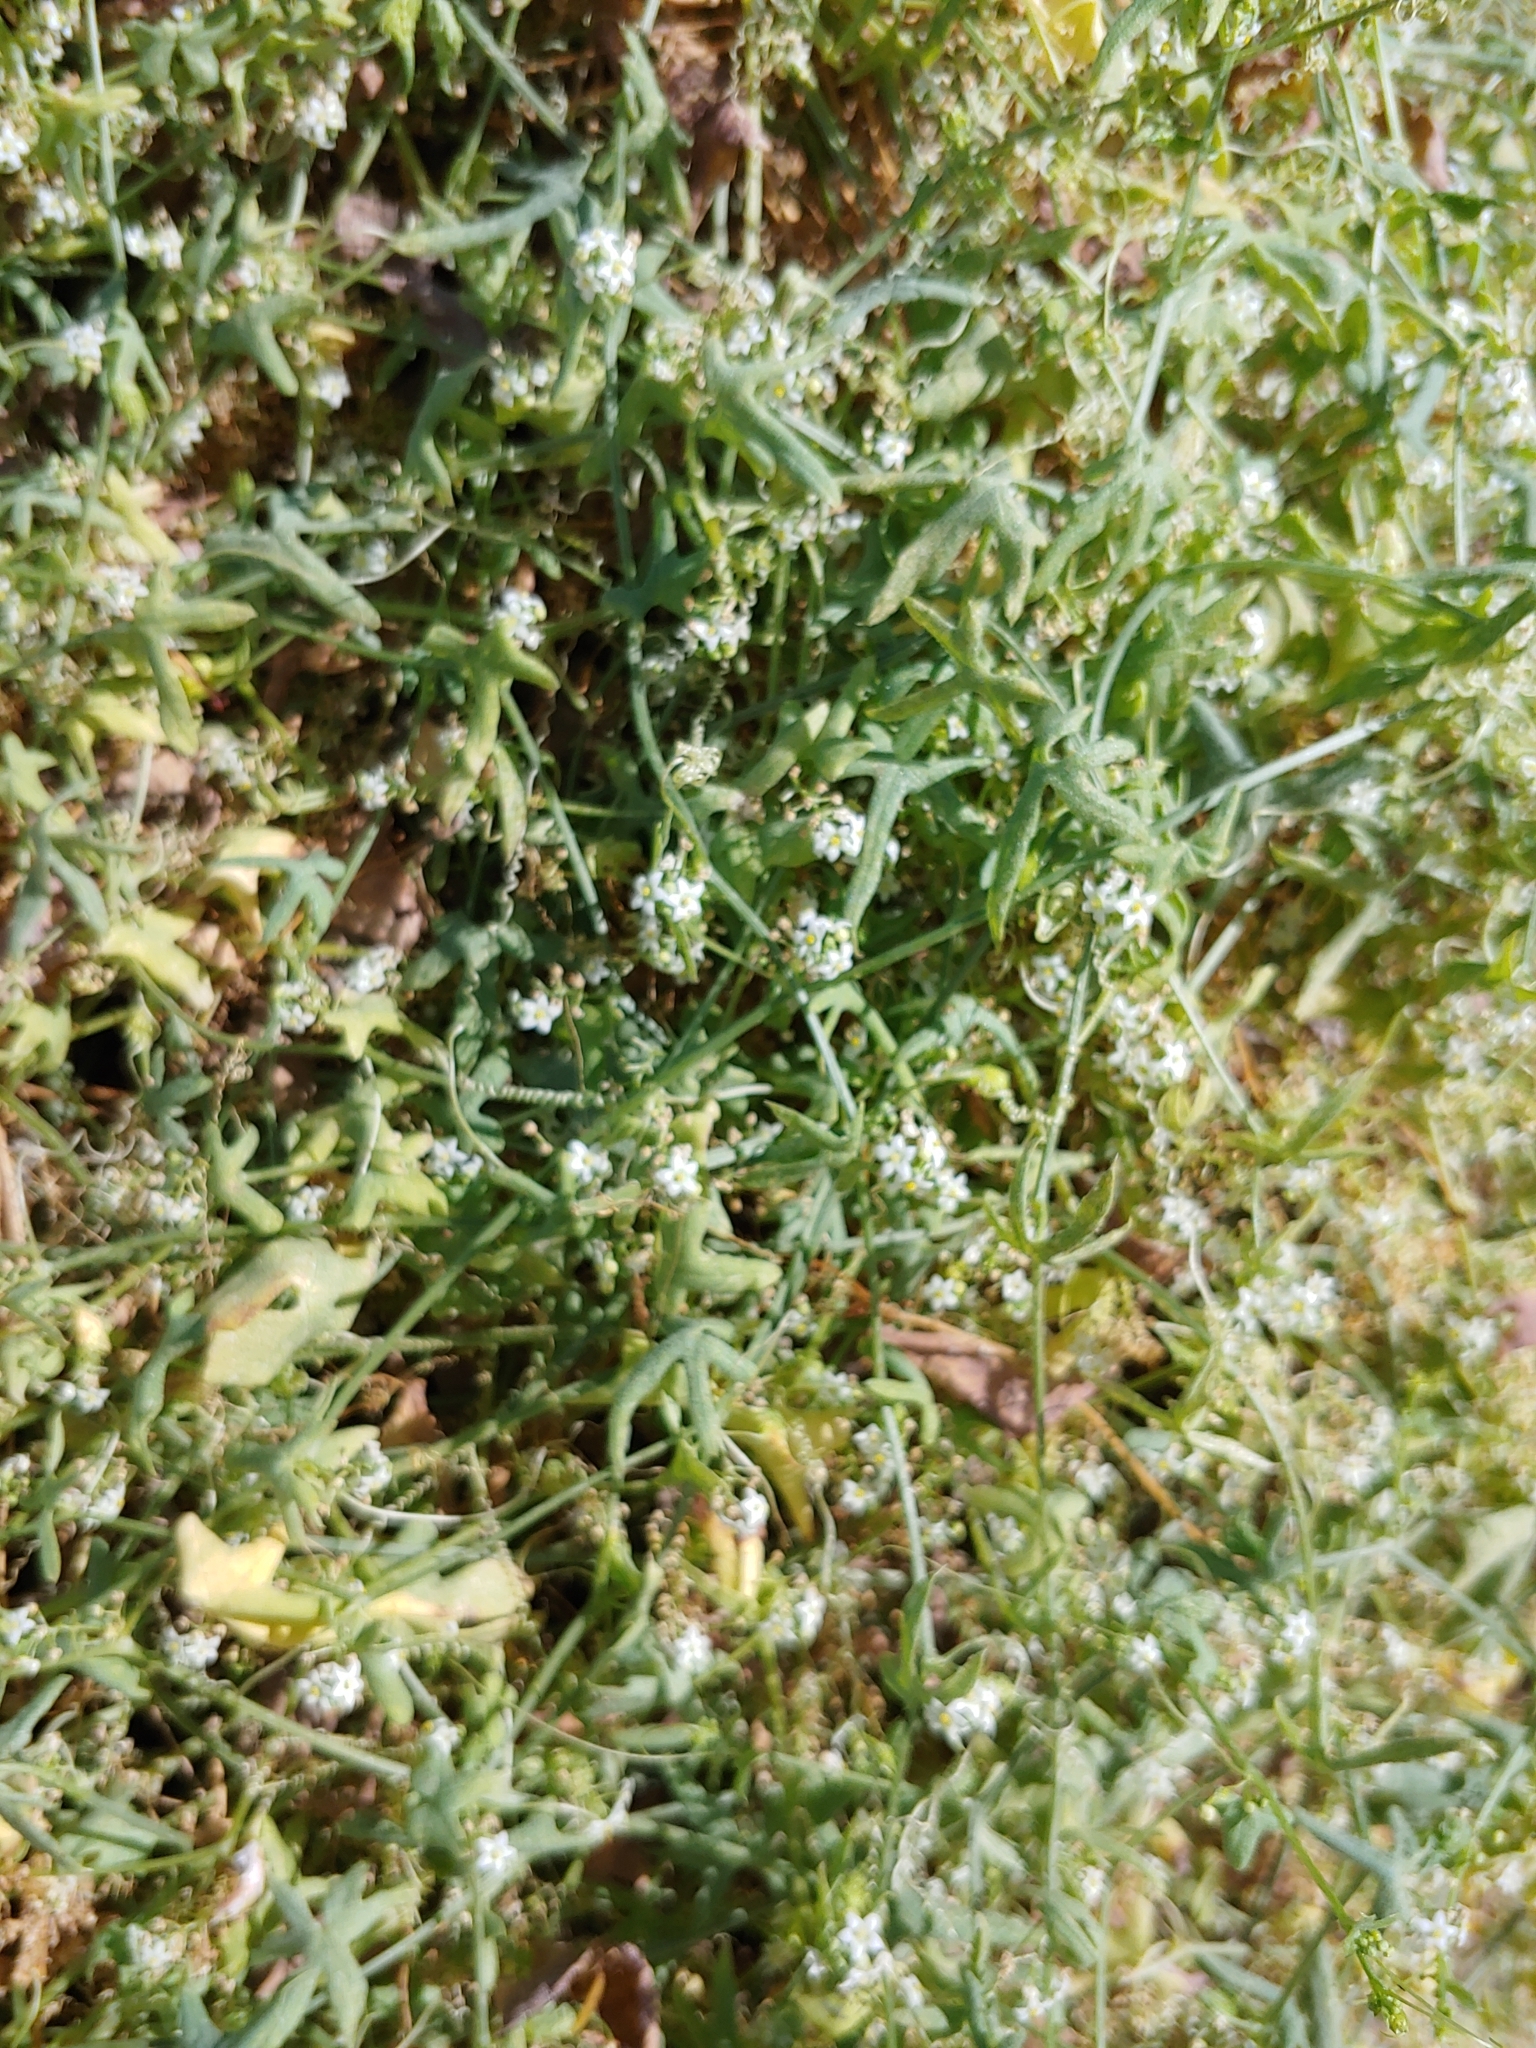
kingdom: Plantae
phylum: Tracheophyta
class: Magnoliopsida
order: Cucurbitales
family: Cucurbitaceae
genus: Echinopepon
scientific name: Echinopepon bigelovii
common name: Desert starvine
